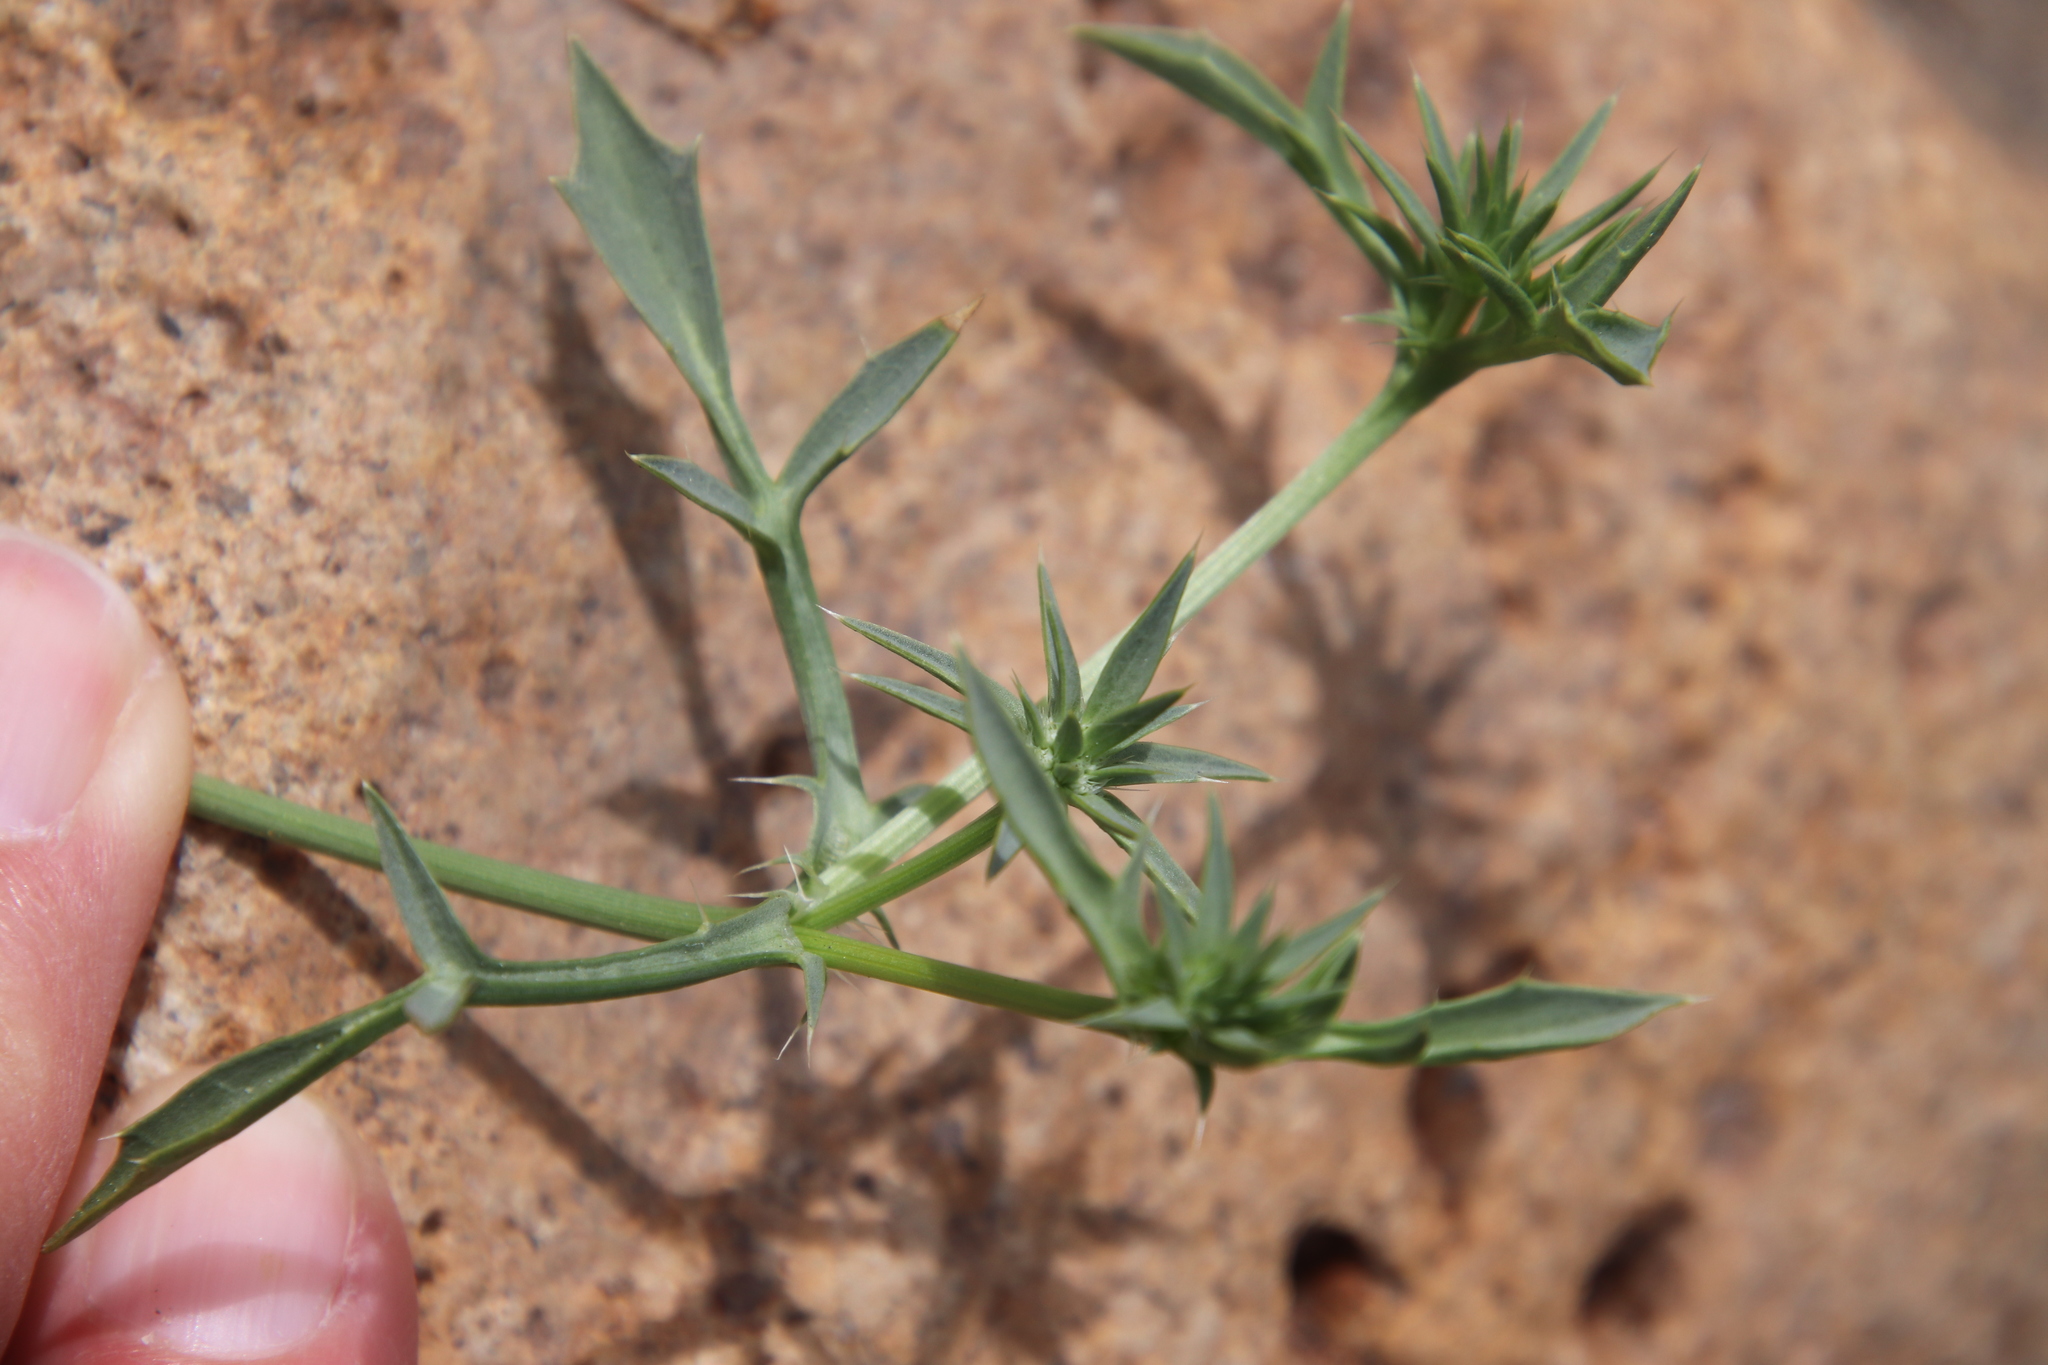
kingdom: Plantae
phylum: Tracheophyta
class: Magnoliopsida
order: Apiales
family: Apiaceae
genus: Eryngium
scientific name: Eryngium aristulatum
